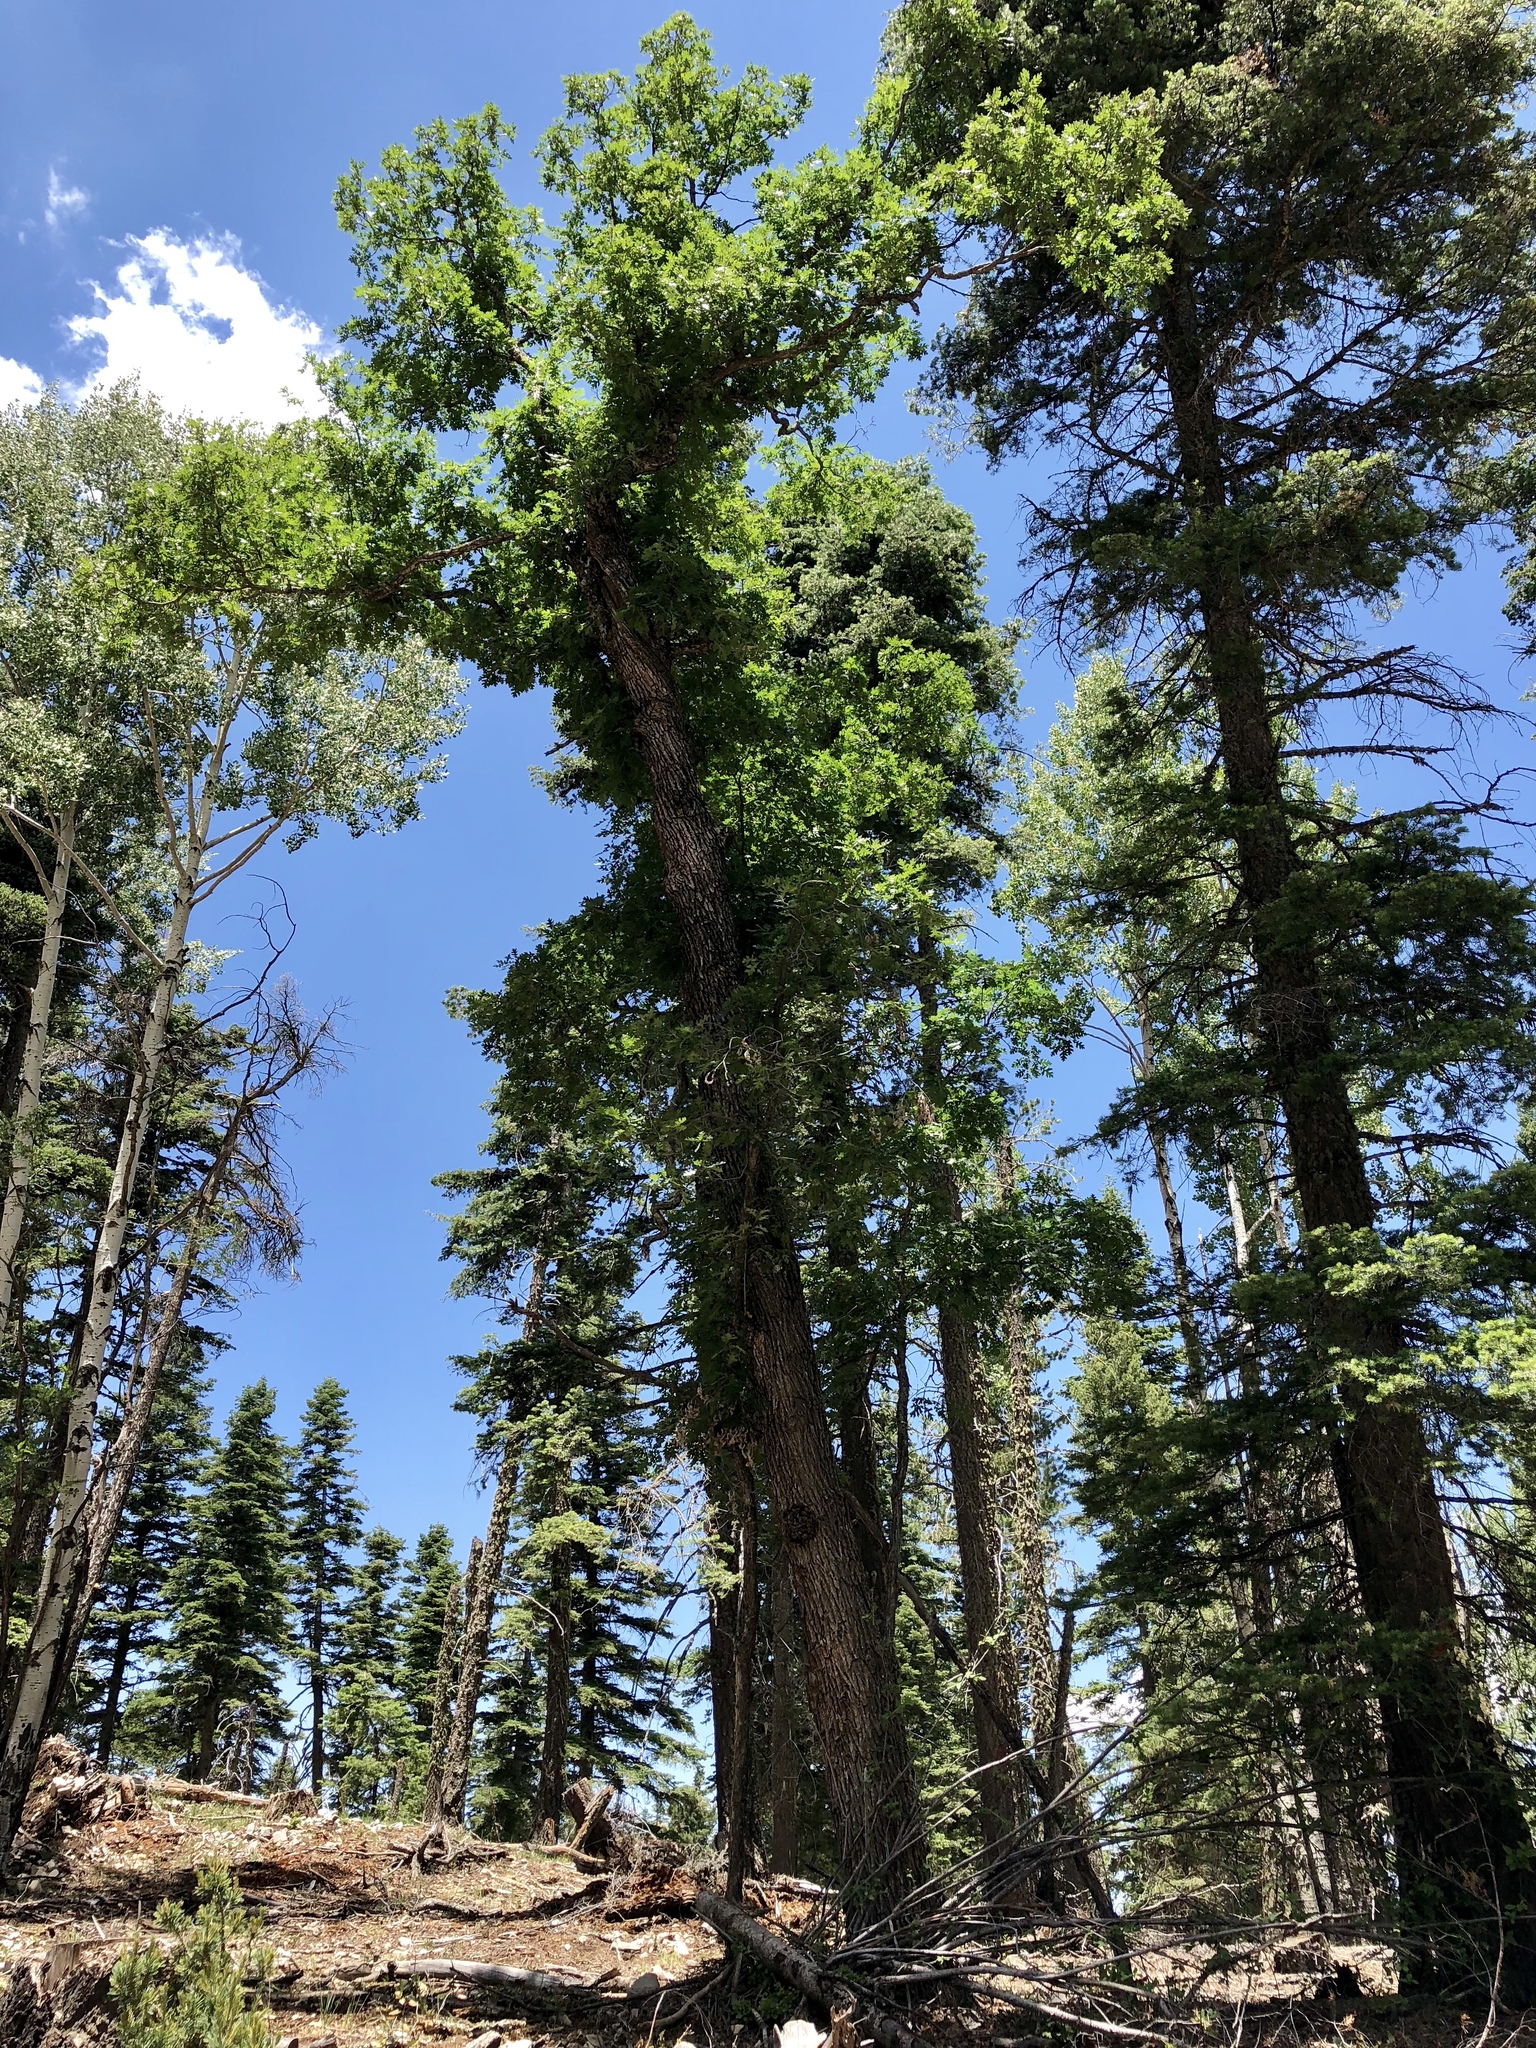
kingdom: Plantae
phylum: Tracheophyta
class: Magnoliopsida
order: Fagales
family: Fagaceae
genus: Quercus
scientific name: Quercus gambelii
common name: Gambel oak
